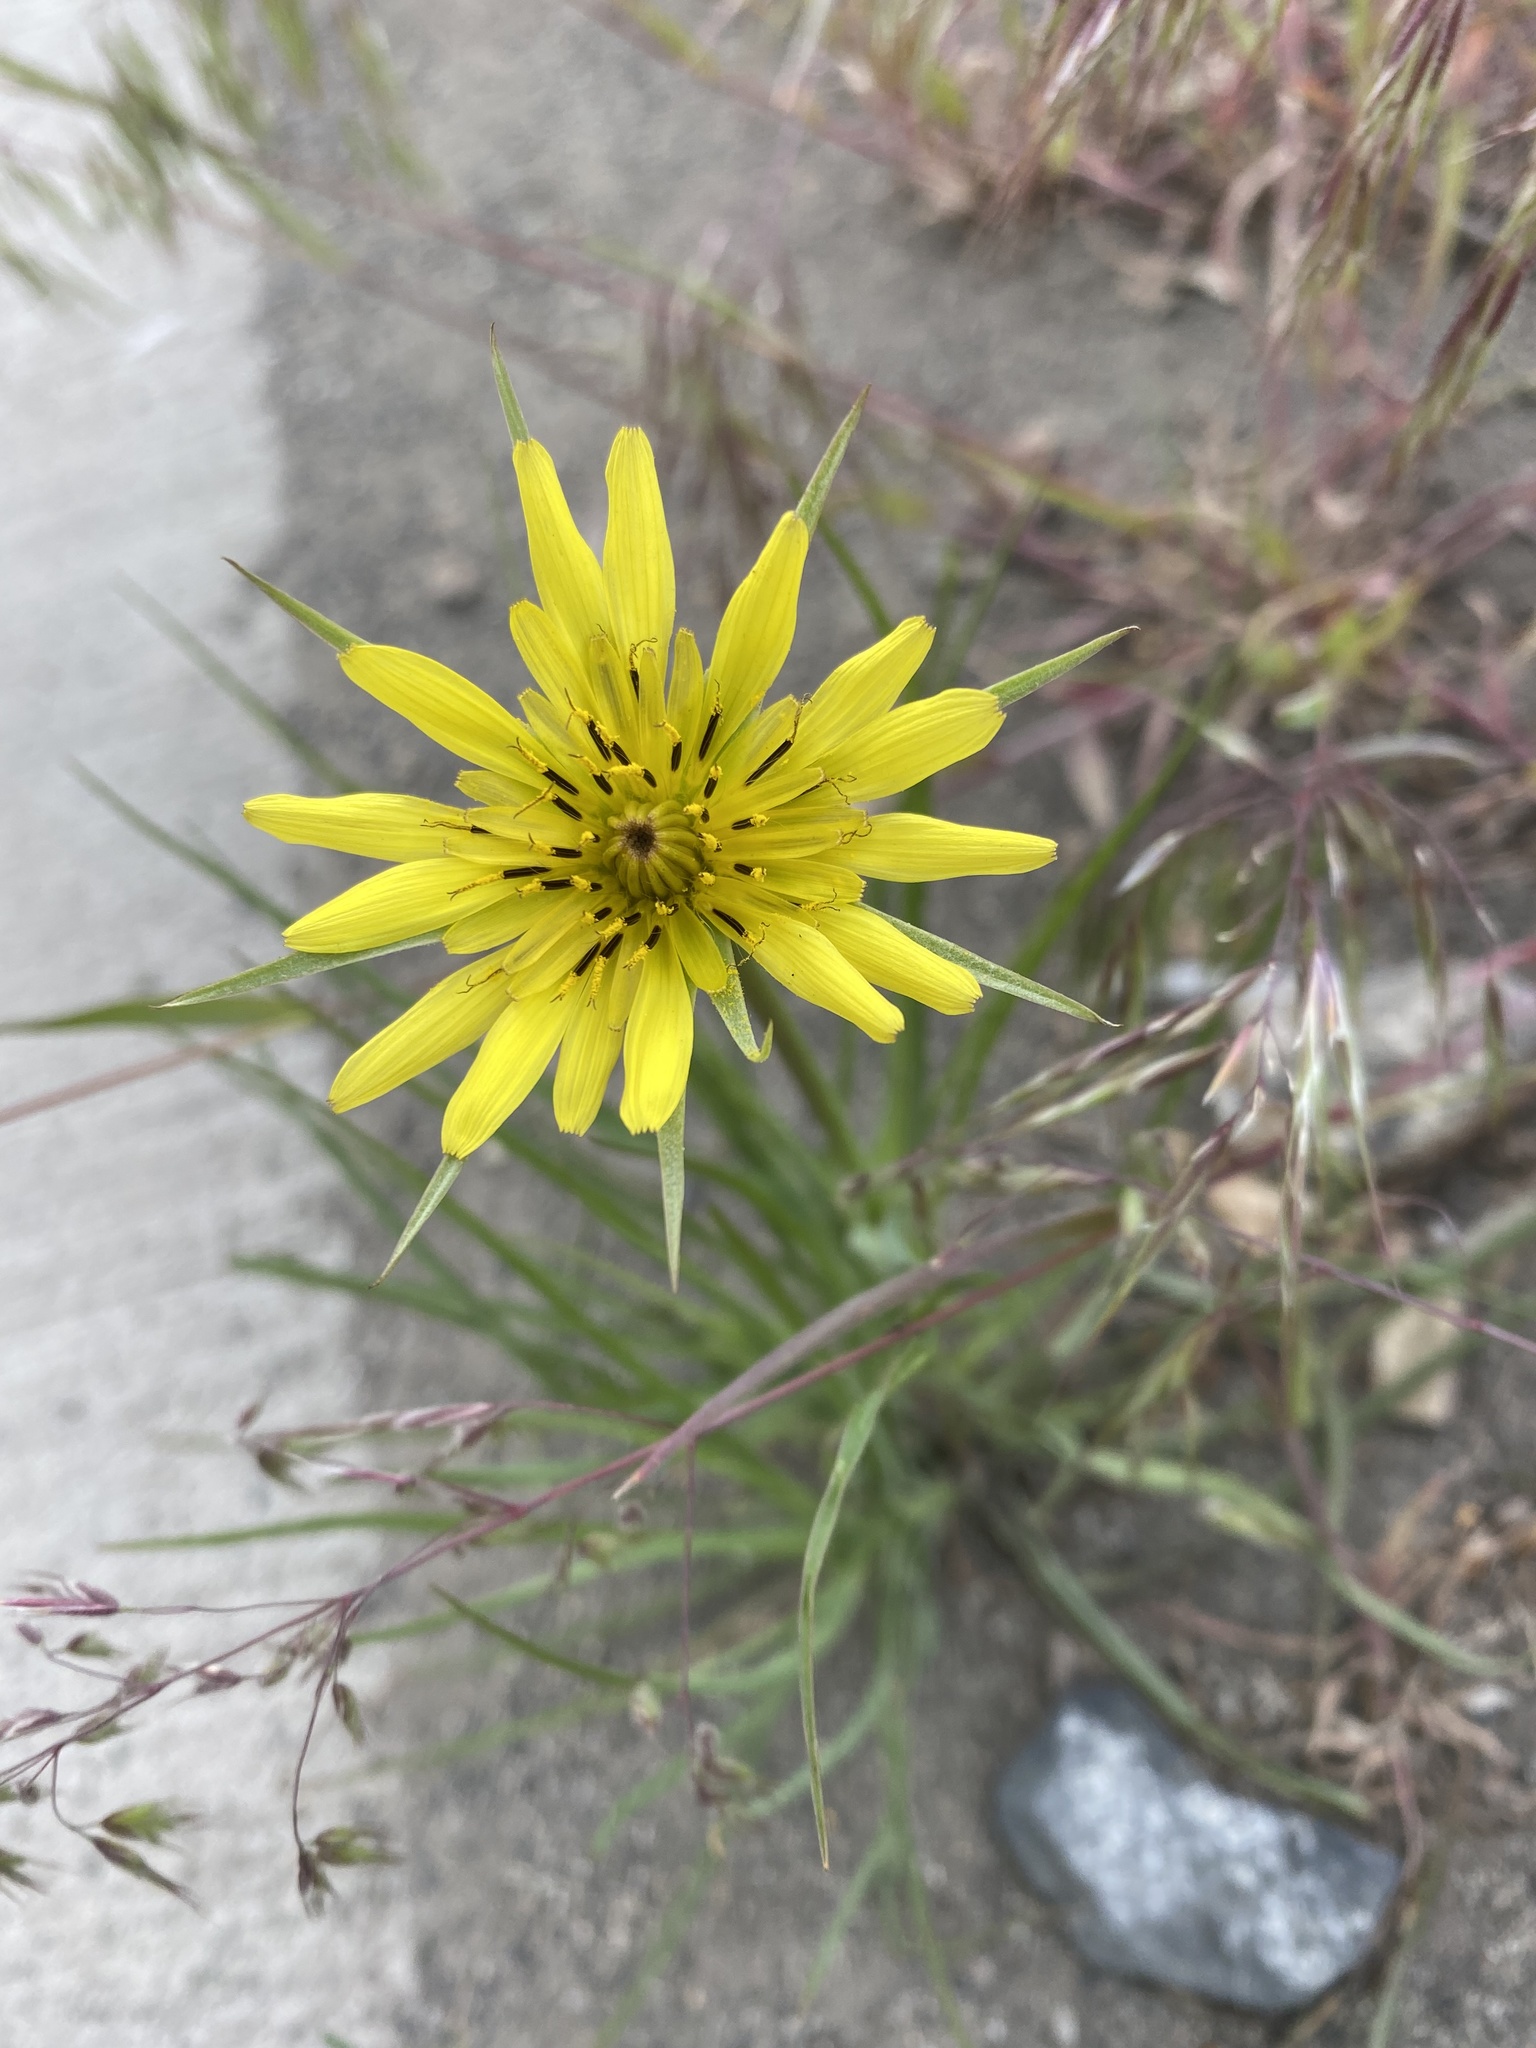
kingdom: Plantae
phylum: Tracheophyta
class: Magnoliopsida
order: Asterales
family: Asteraceae
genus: Tragopogon
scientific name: Tragopogon dubius
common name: Yellow salsify
